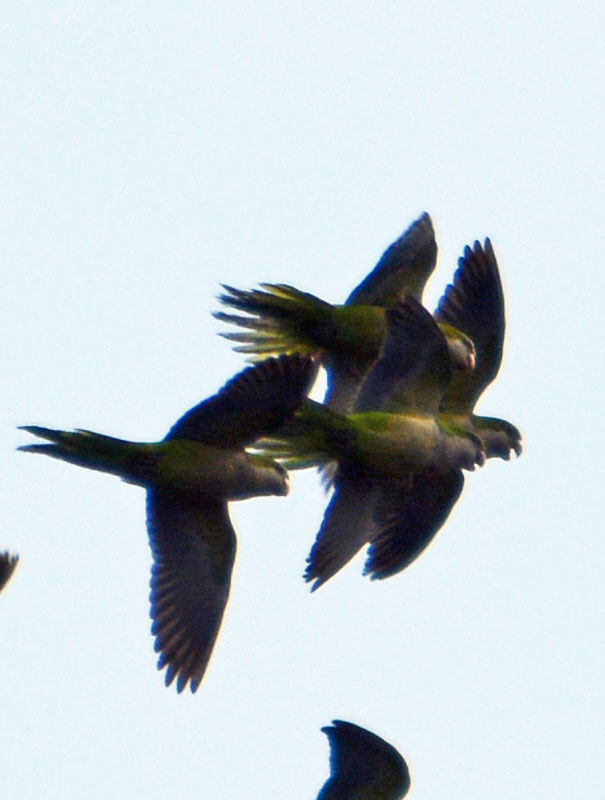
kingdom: Animalia
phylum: Chordata
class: Aves
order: Psittaciformes
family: Psittacidae
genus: Myiopsitta
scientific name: Myiopsitta monachus
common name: Monk parakeet
